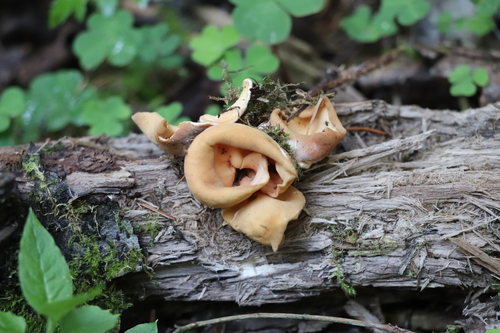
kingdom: Fungi
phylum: Ascomycota
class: Pezizomycetes
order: Pezizales
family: Otideaceae
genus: Otidea
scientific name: Otidea
